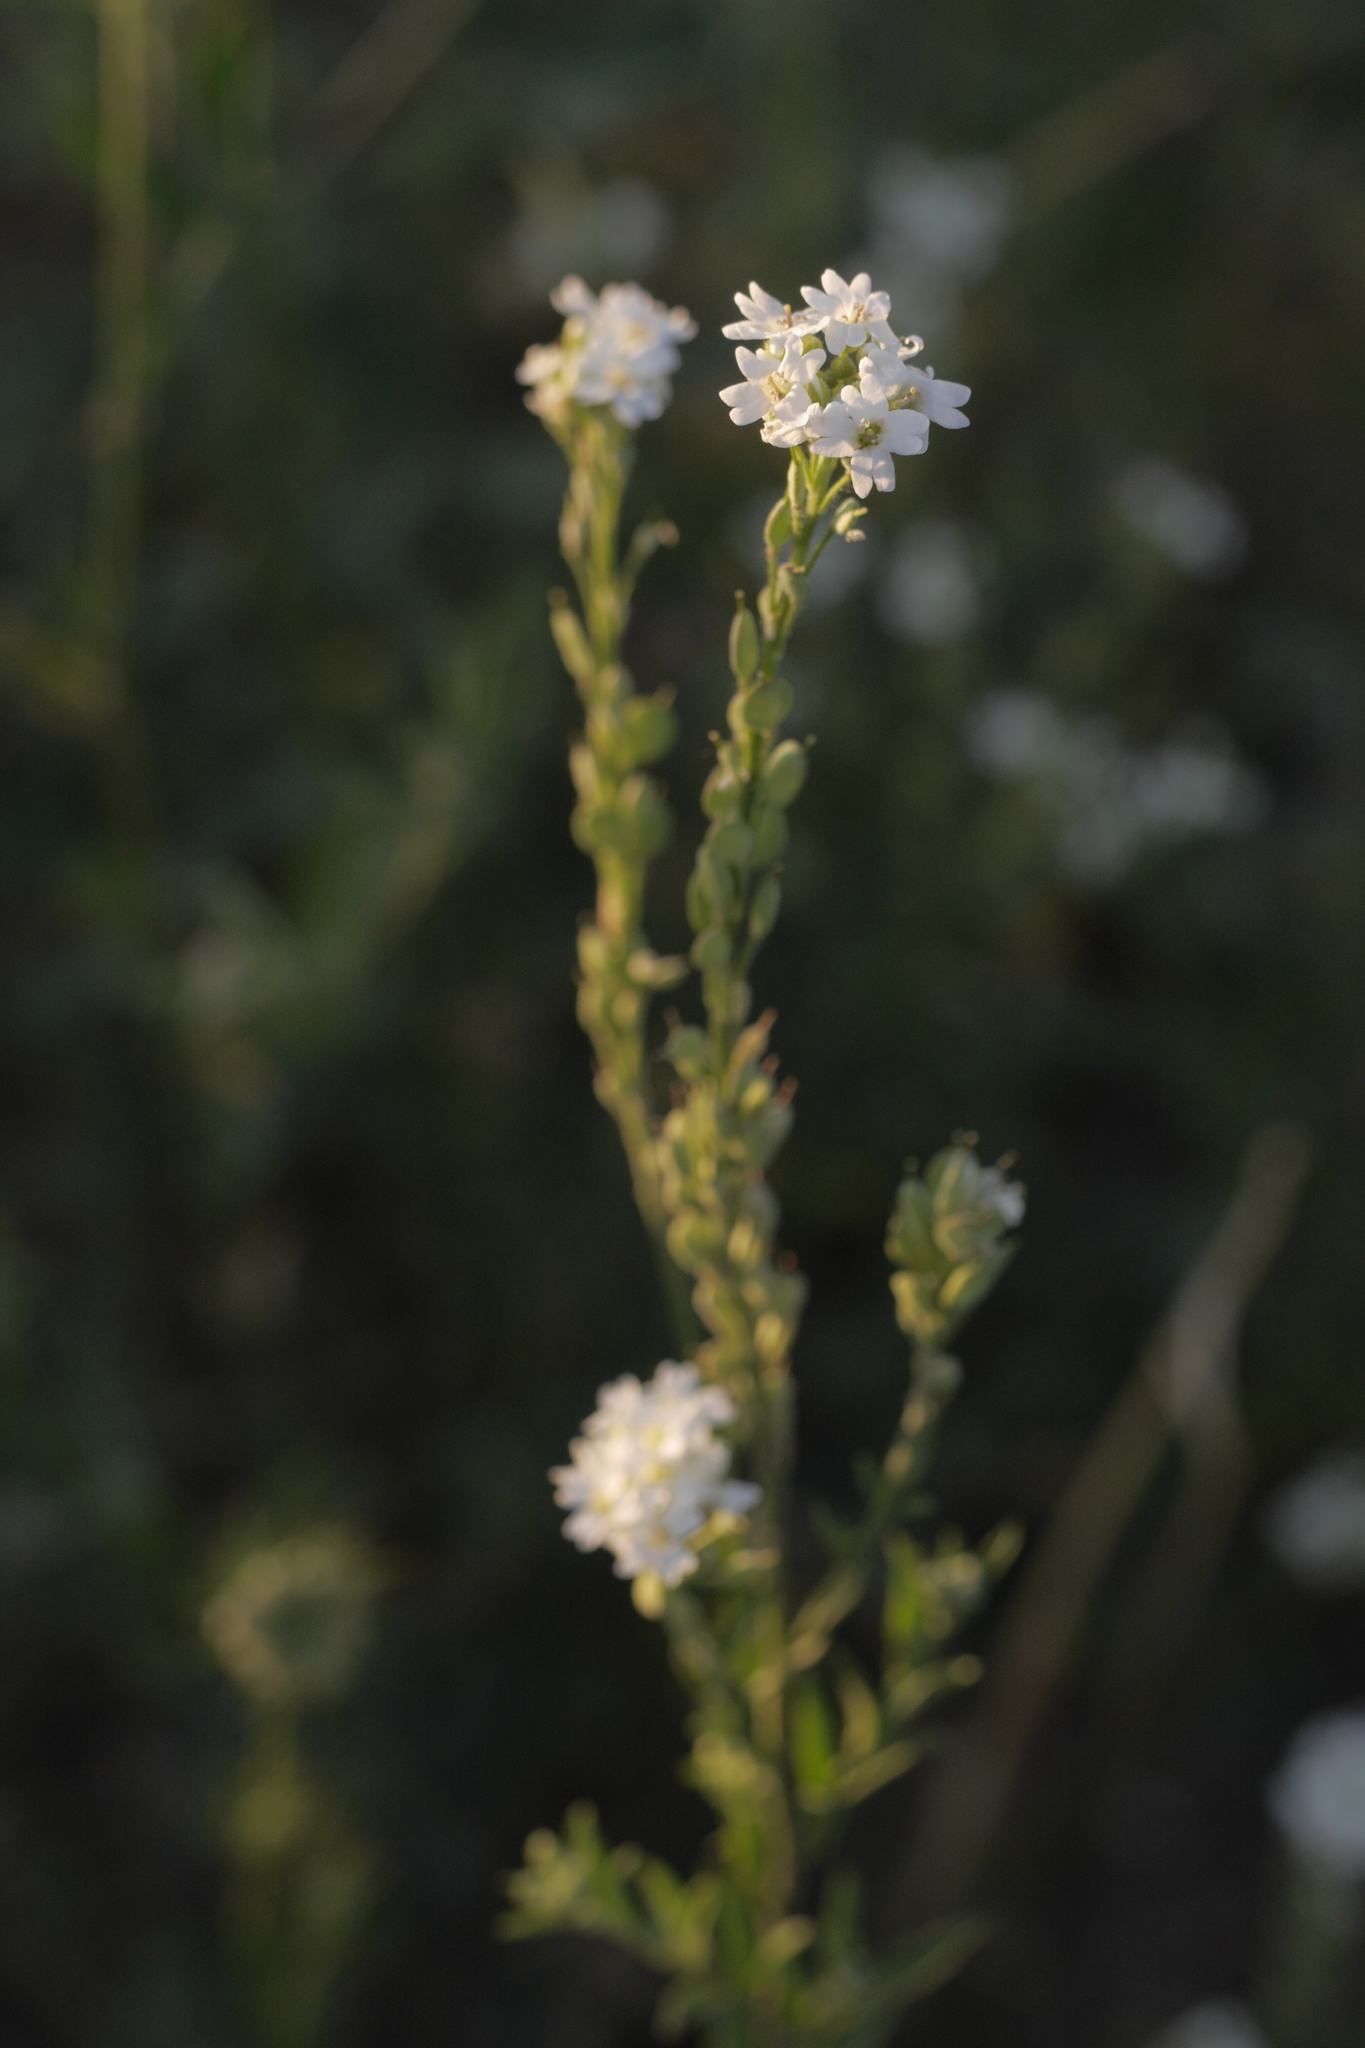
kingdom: Plantae
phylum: Tracheophyta
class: Magnoliopsida
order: Brassicales
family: Brassicaceae
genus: Berteroa
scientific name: Berteroa incana
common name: Hoary alison
